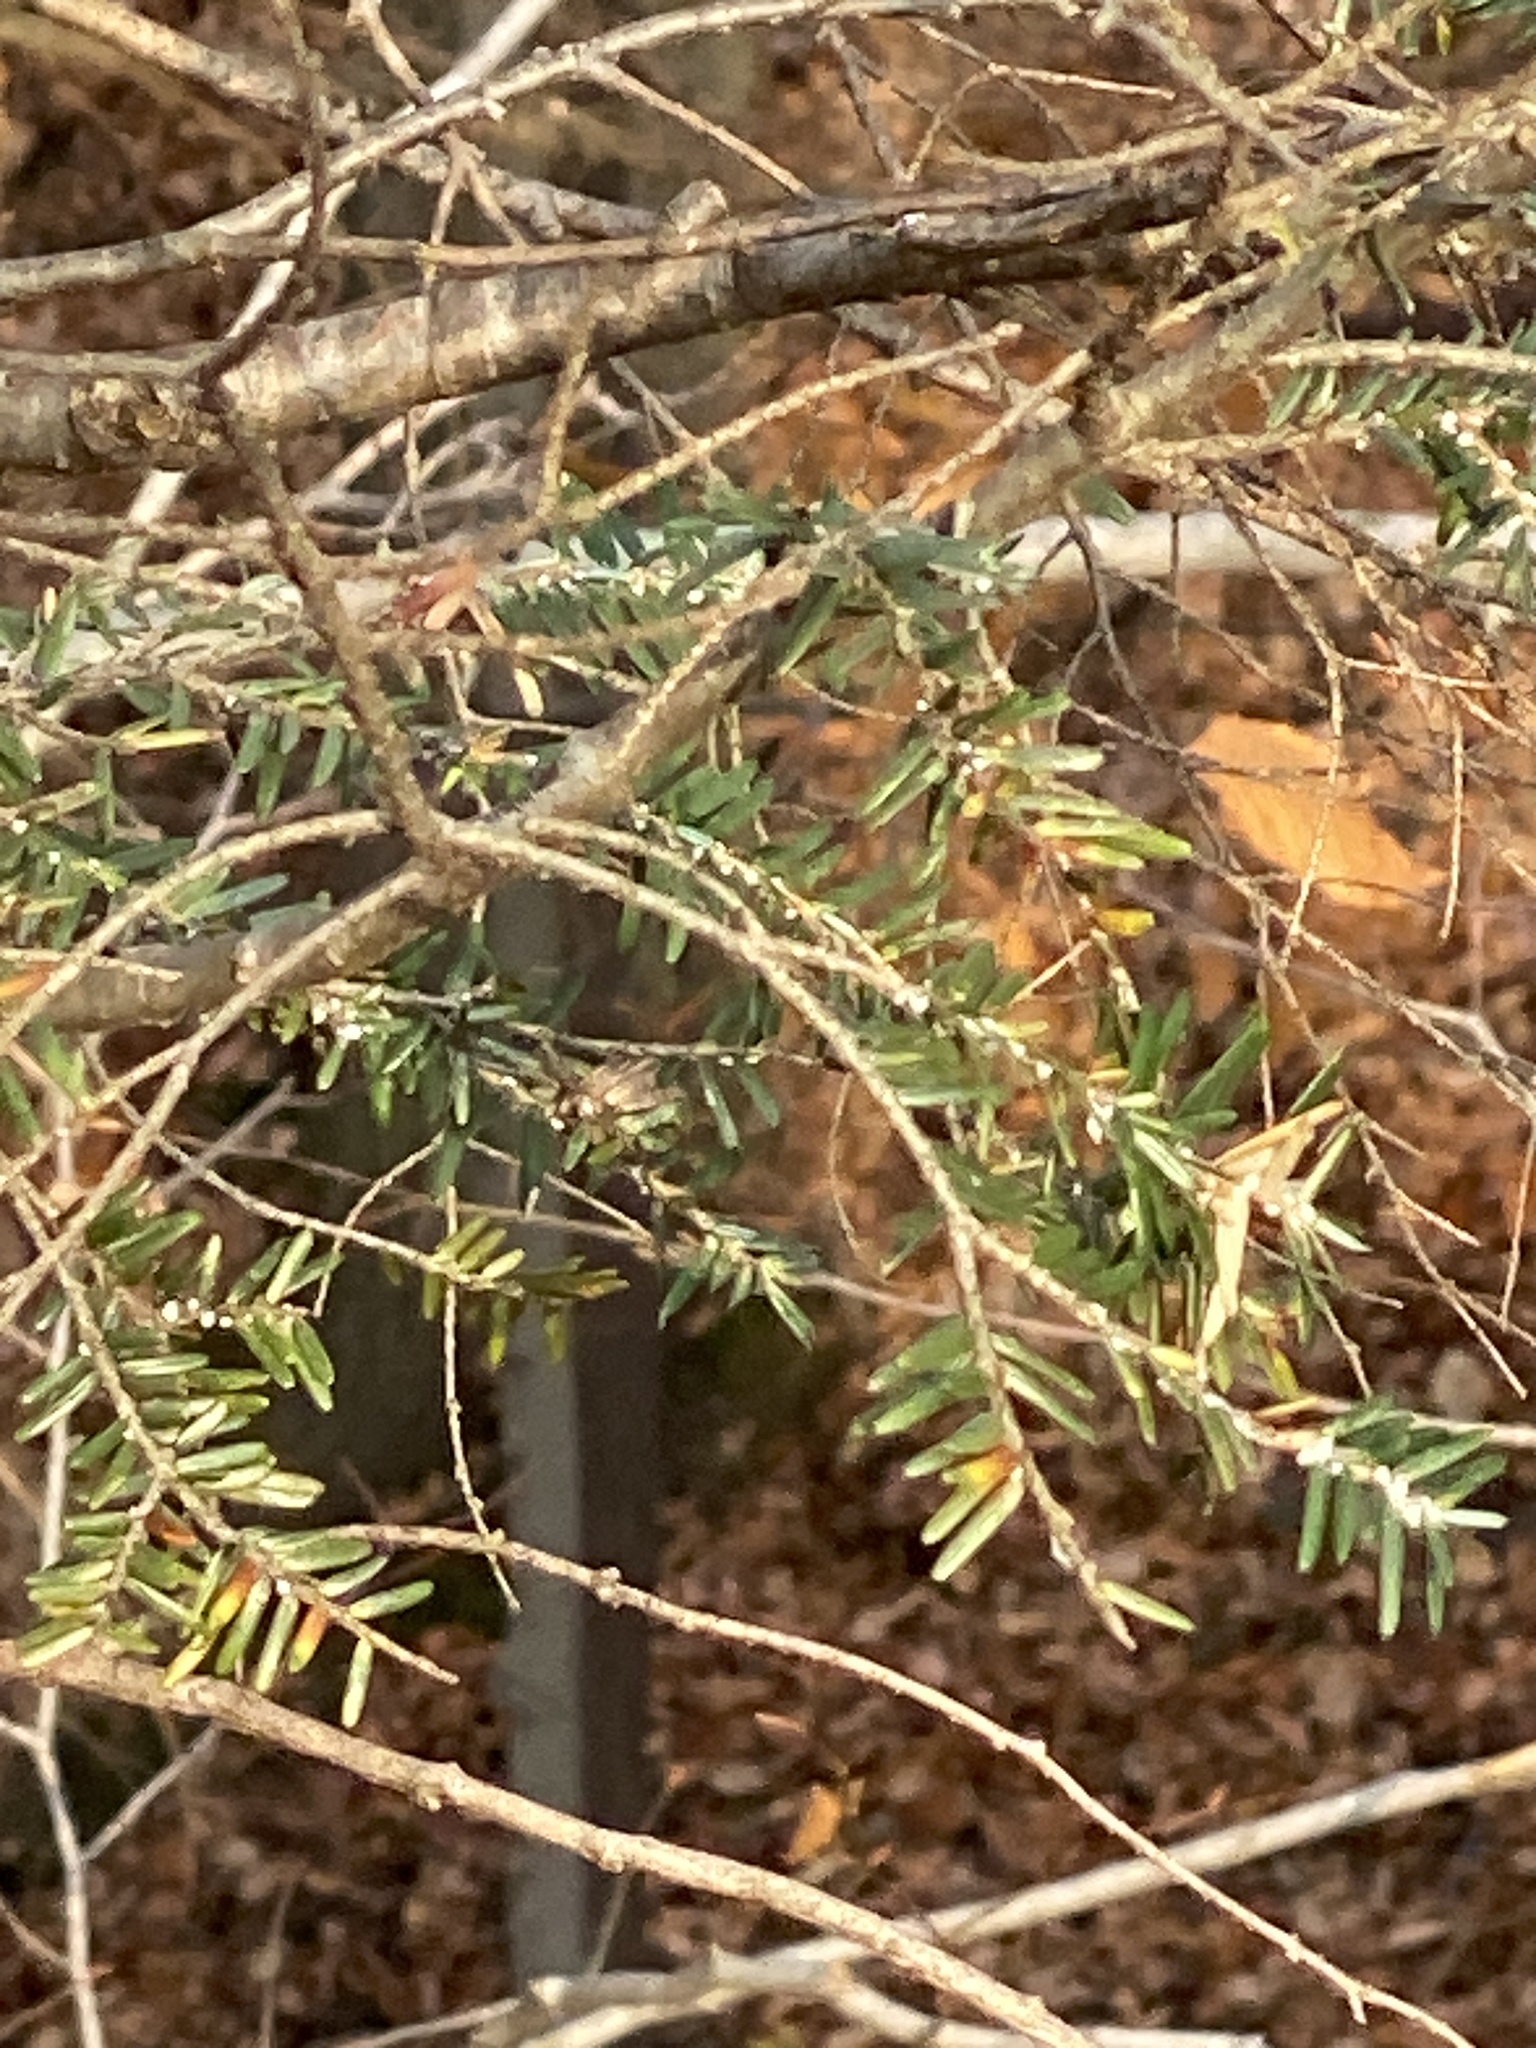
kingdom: Plantae
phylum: Tracheophyta
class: Pinopsida
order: Pinales
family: Pinaceae
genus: Tsuga
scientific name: Tsuga canadensis
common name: Eastern hemlock
